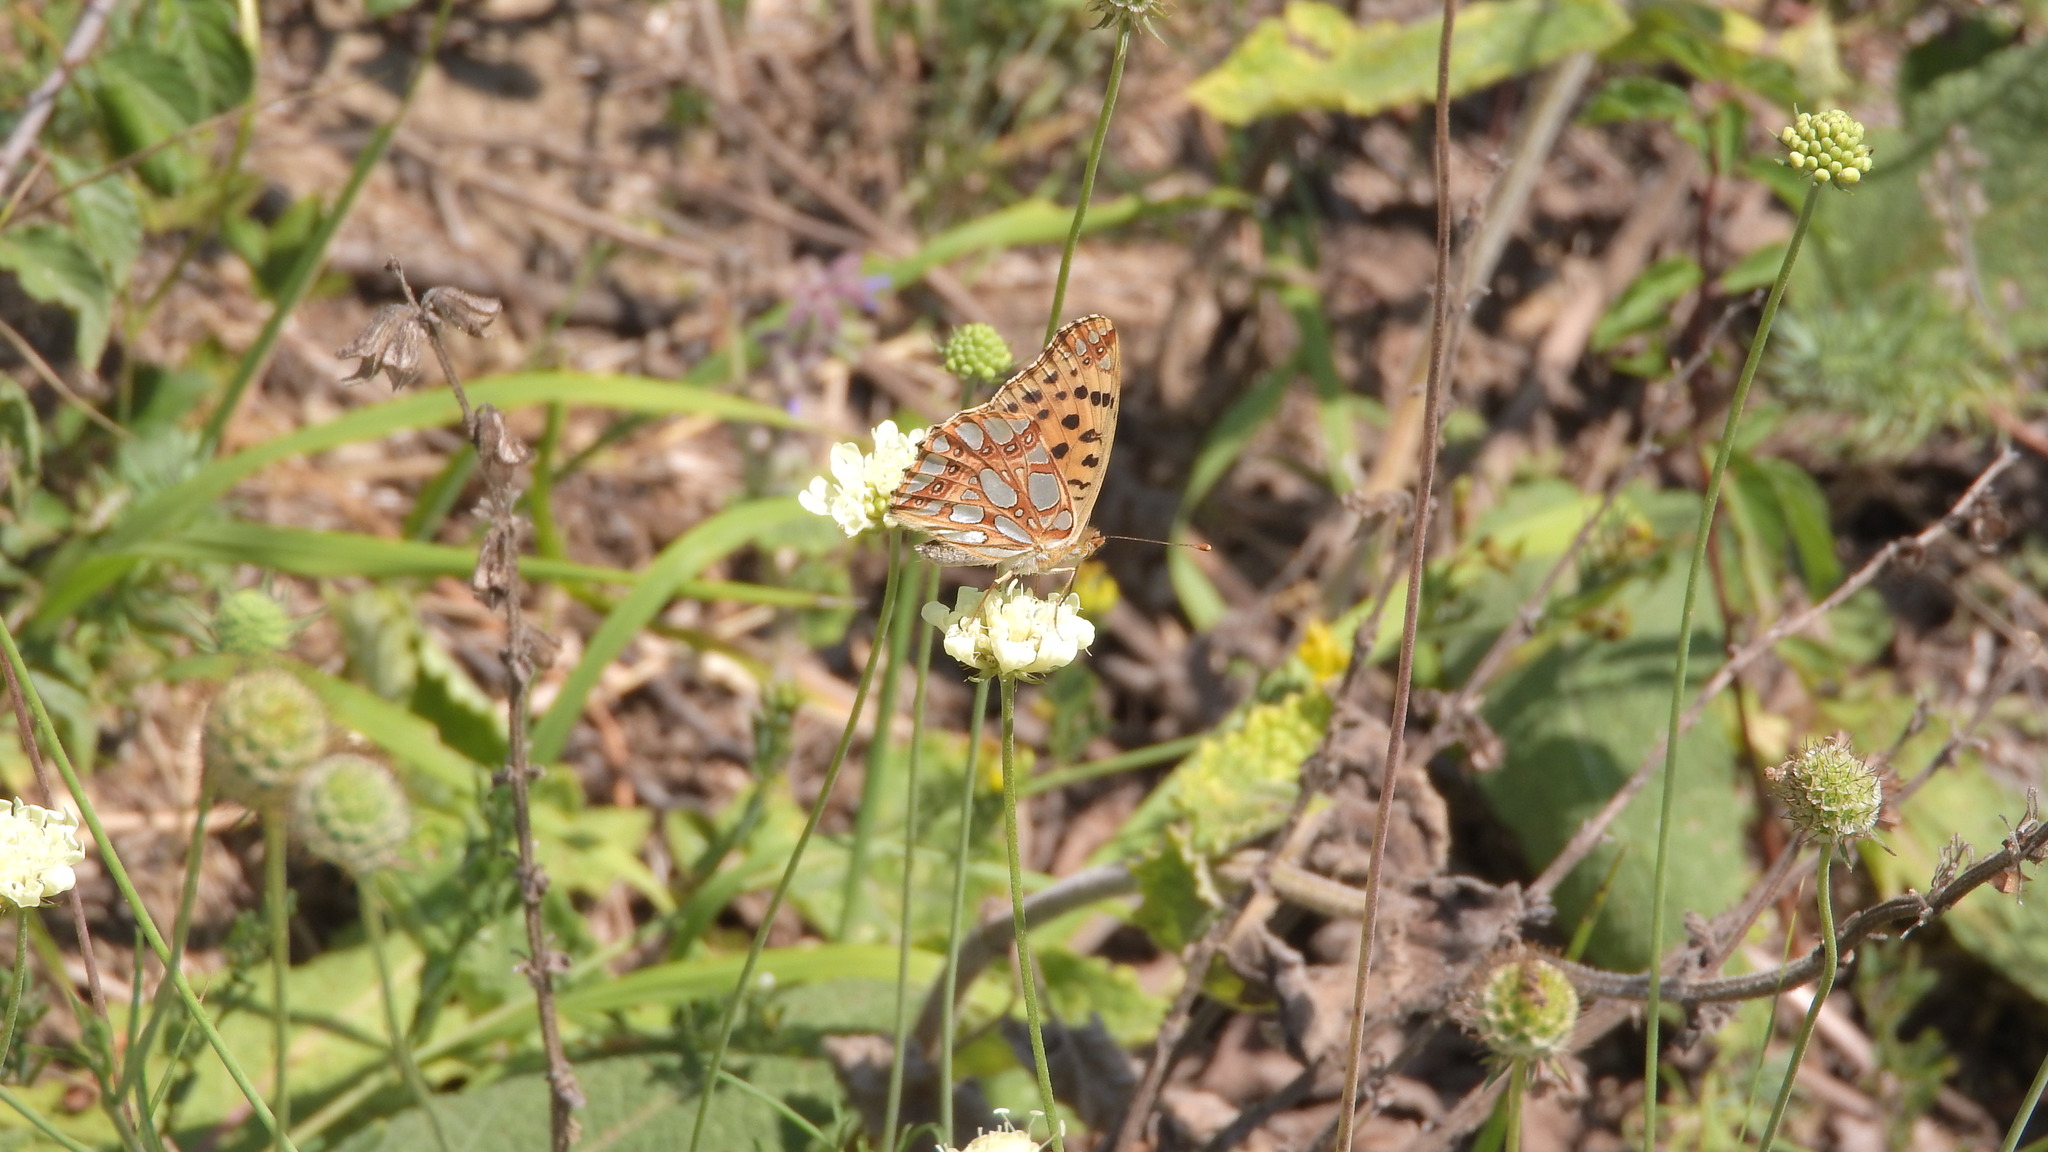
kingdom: Animalia
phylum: Arthropoda
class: Insecta
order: Lepidoptera
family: Nymphalidae
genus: Issoria
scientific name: Issoria lathonia
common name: Queen of spain fritillary
